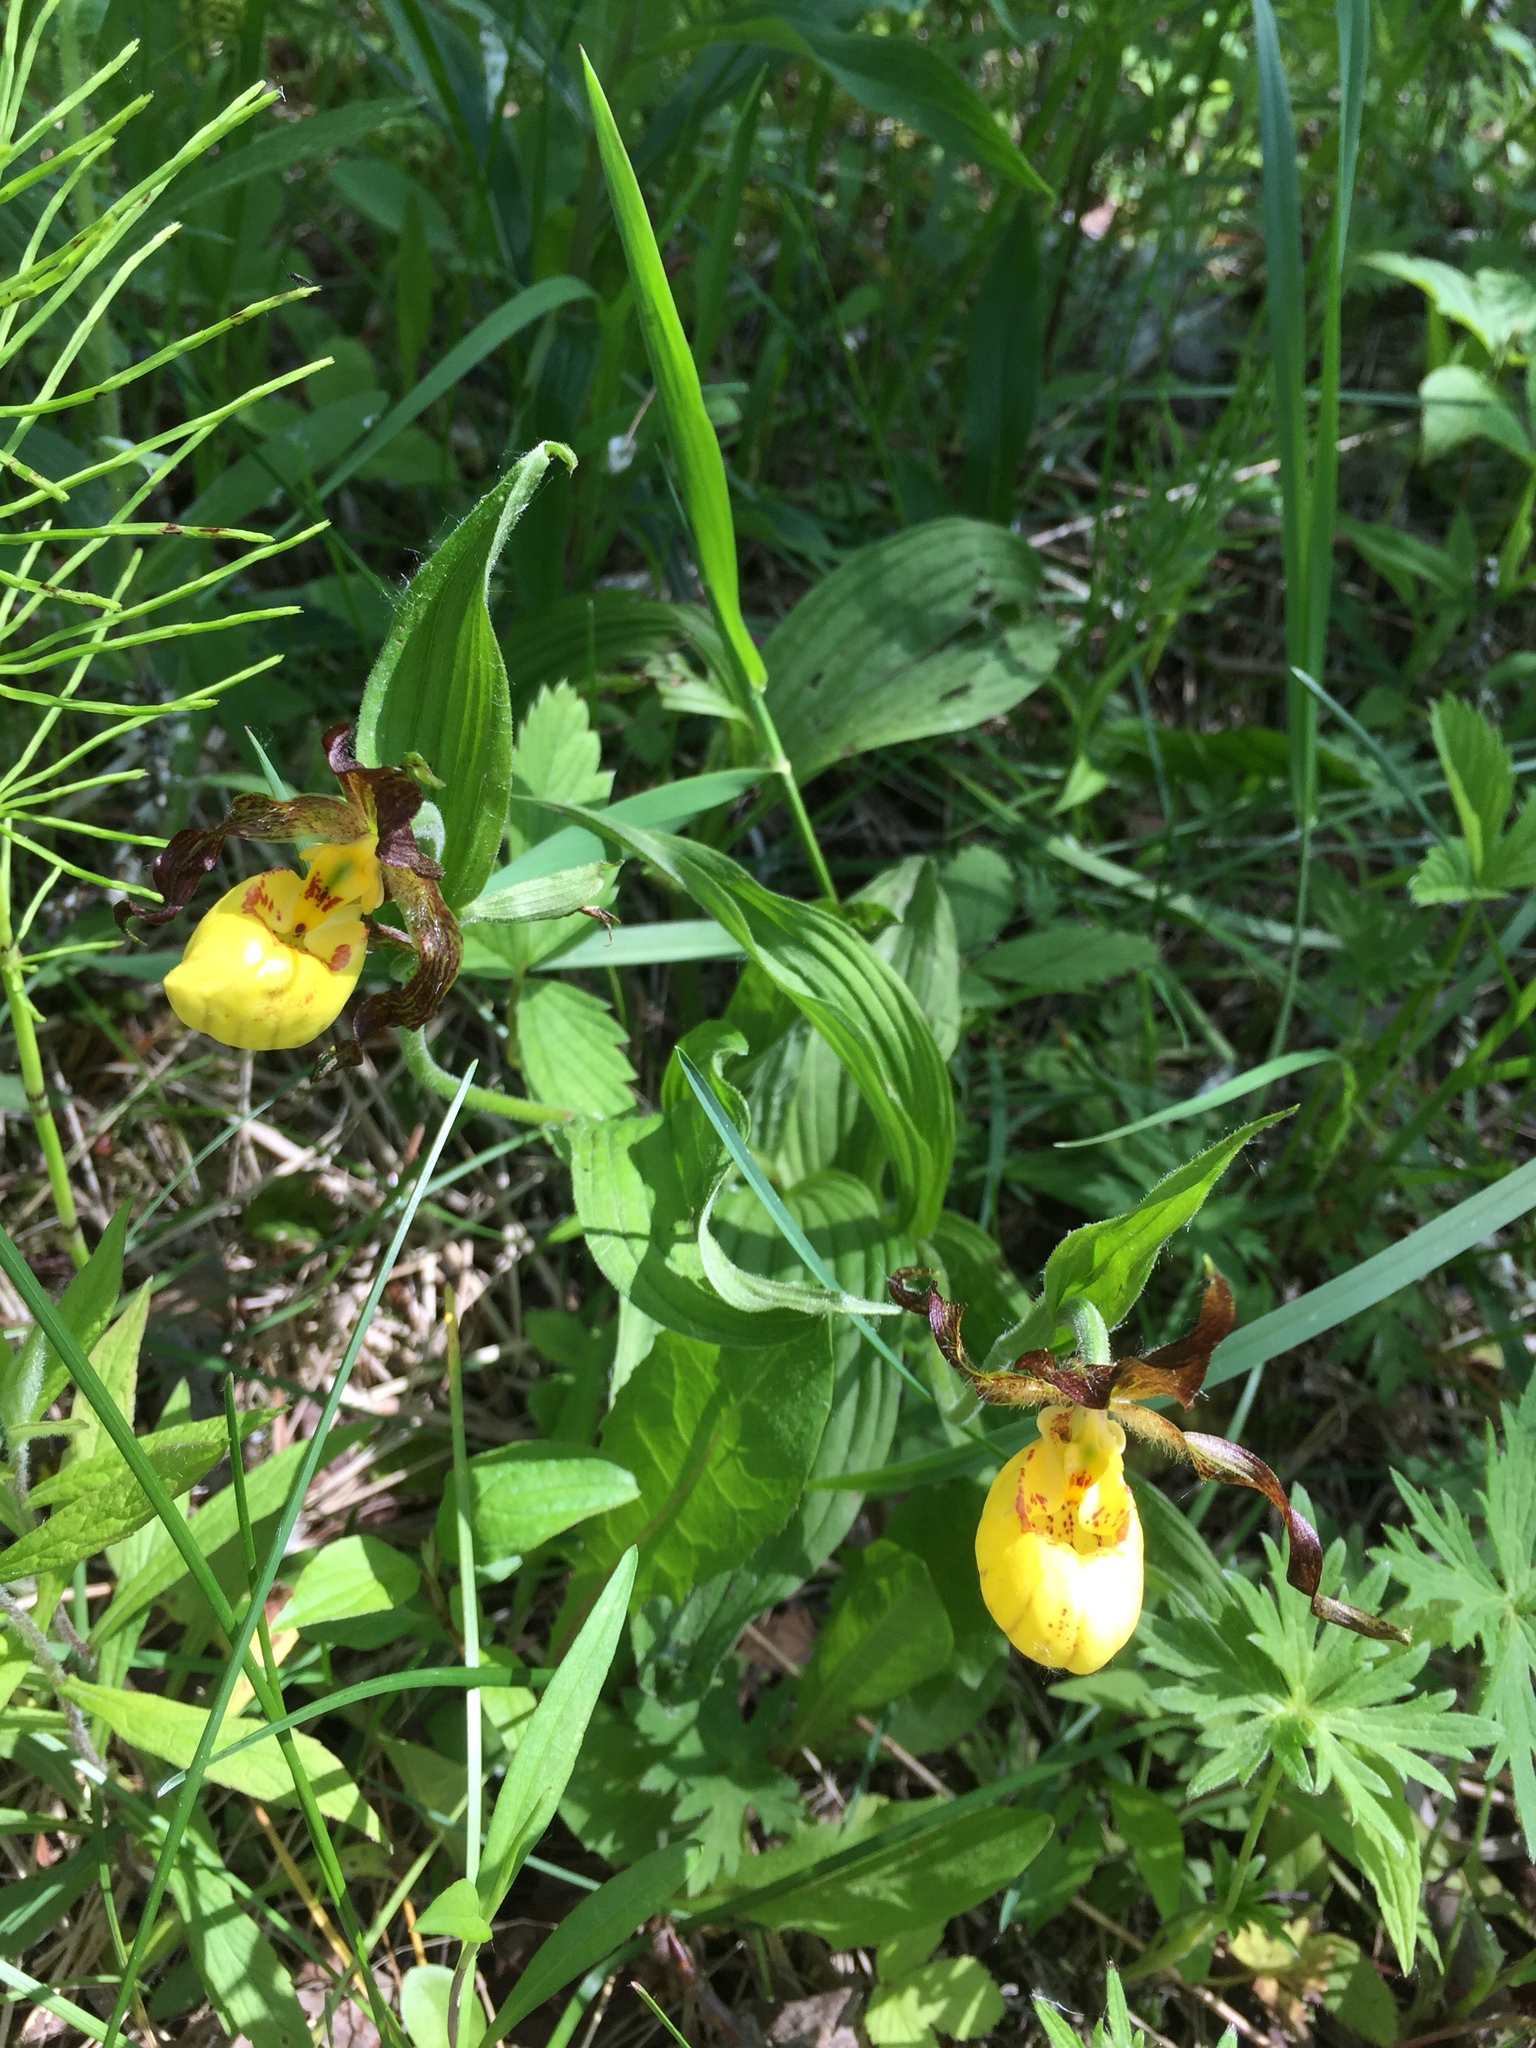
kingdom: Plantae
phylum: Tracheophyta
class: Liliopsida
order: Asparagales
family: Orchidaceae
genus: Cypripedium
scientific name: Cypripedium parviflorum
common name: American yellow lady's-slipper
